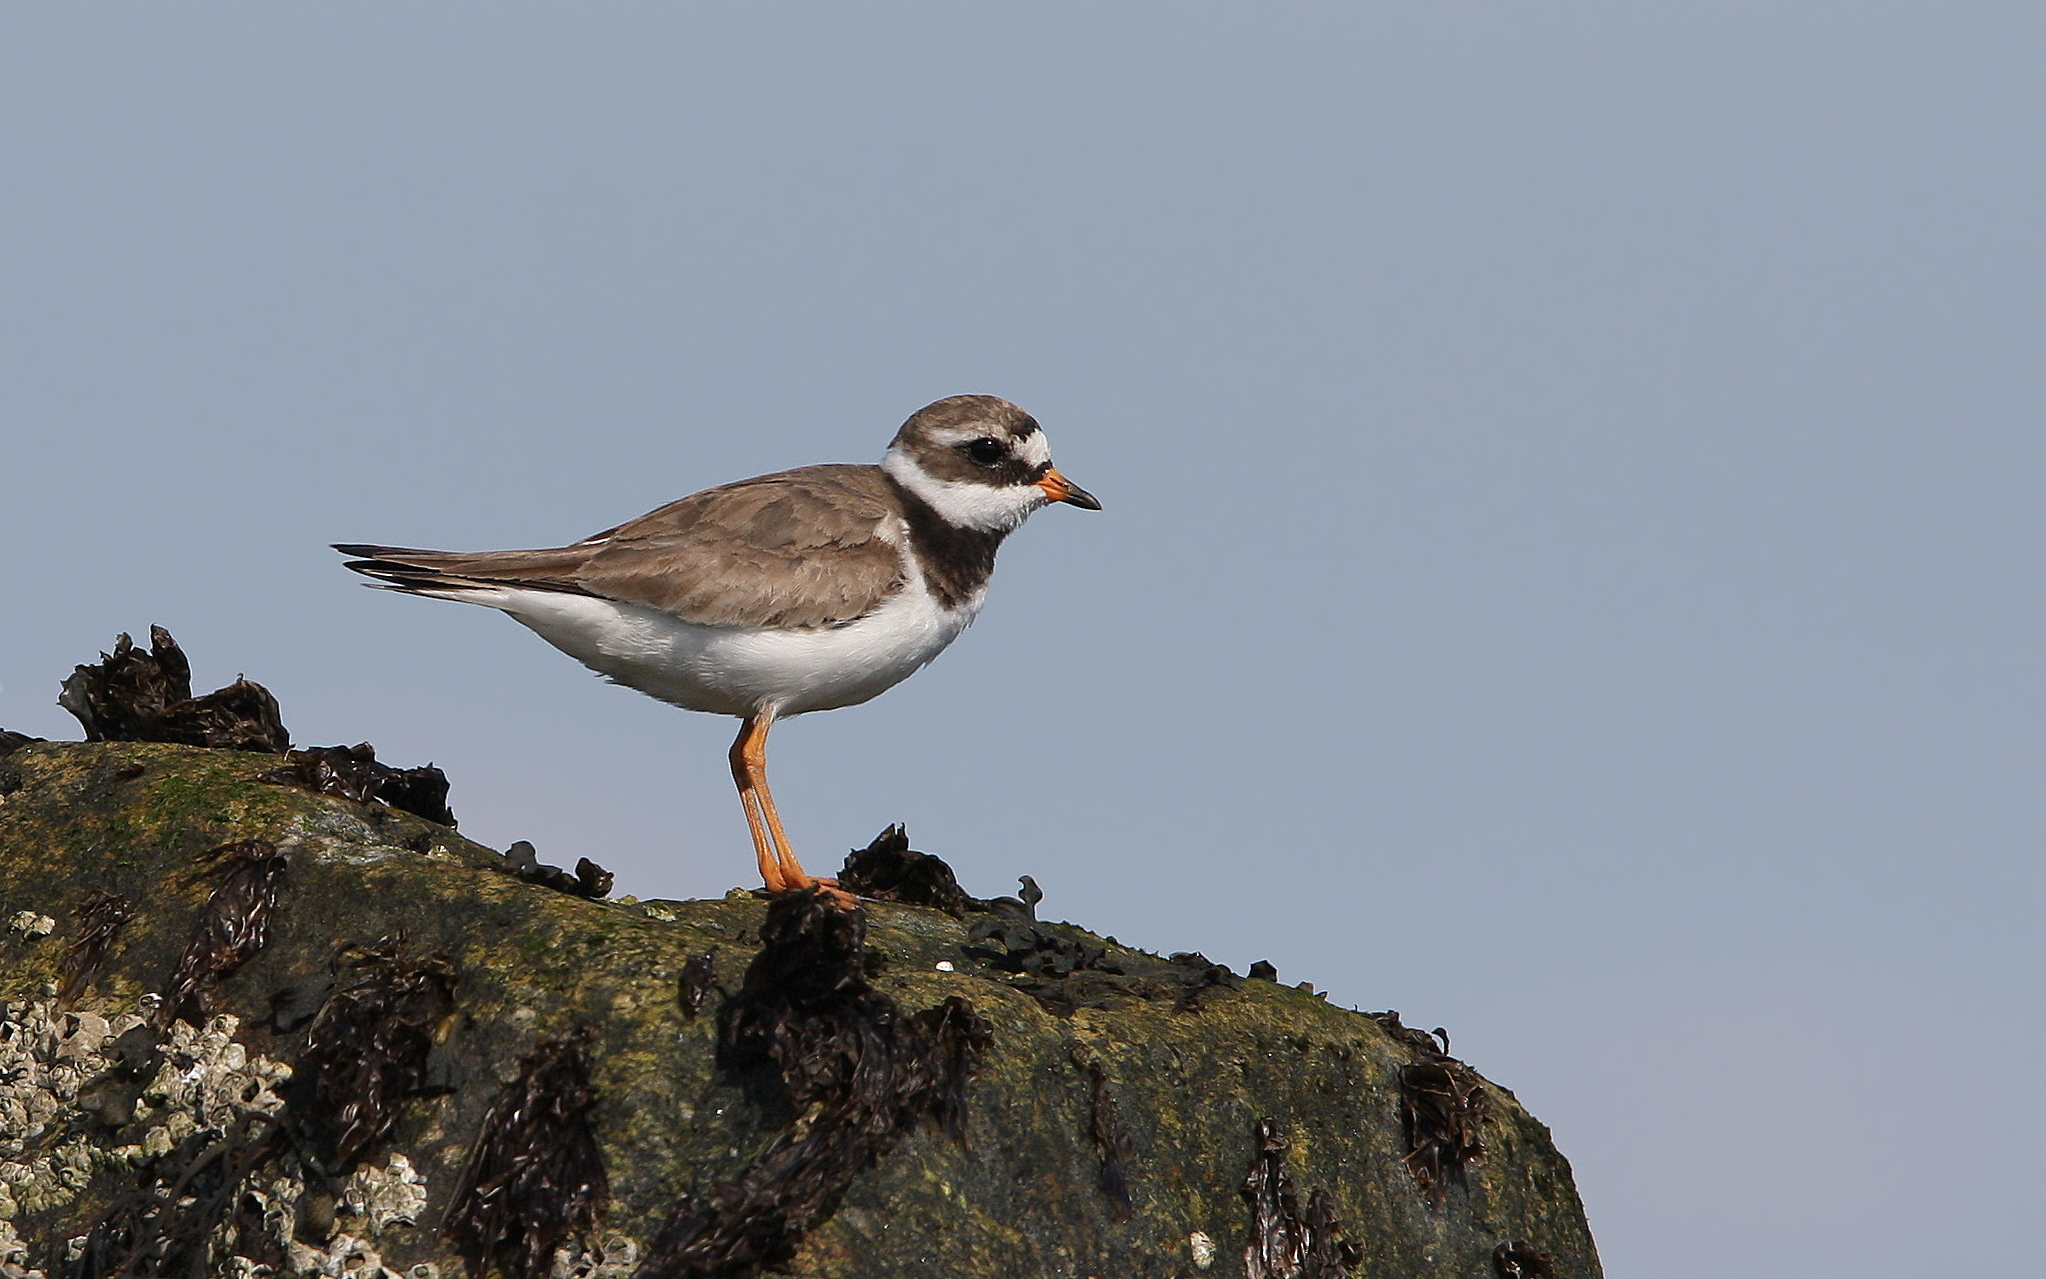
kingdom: Animalia
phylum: Chordata
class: Aves
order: Charadriiformes
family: Charadriidae
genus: Charadrius
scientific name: Charadrius hiaticula
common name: Common ringed plover
